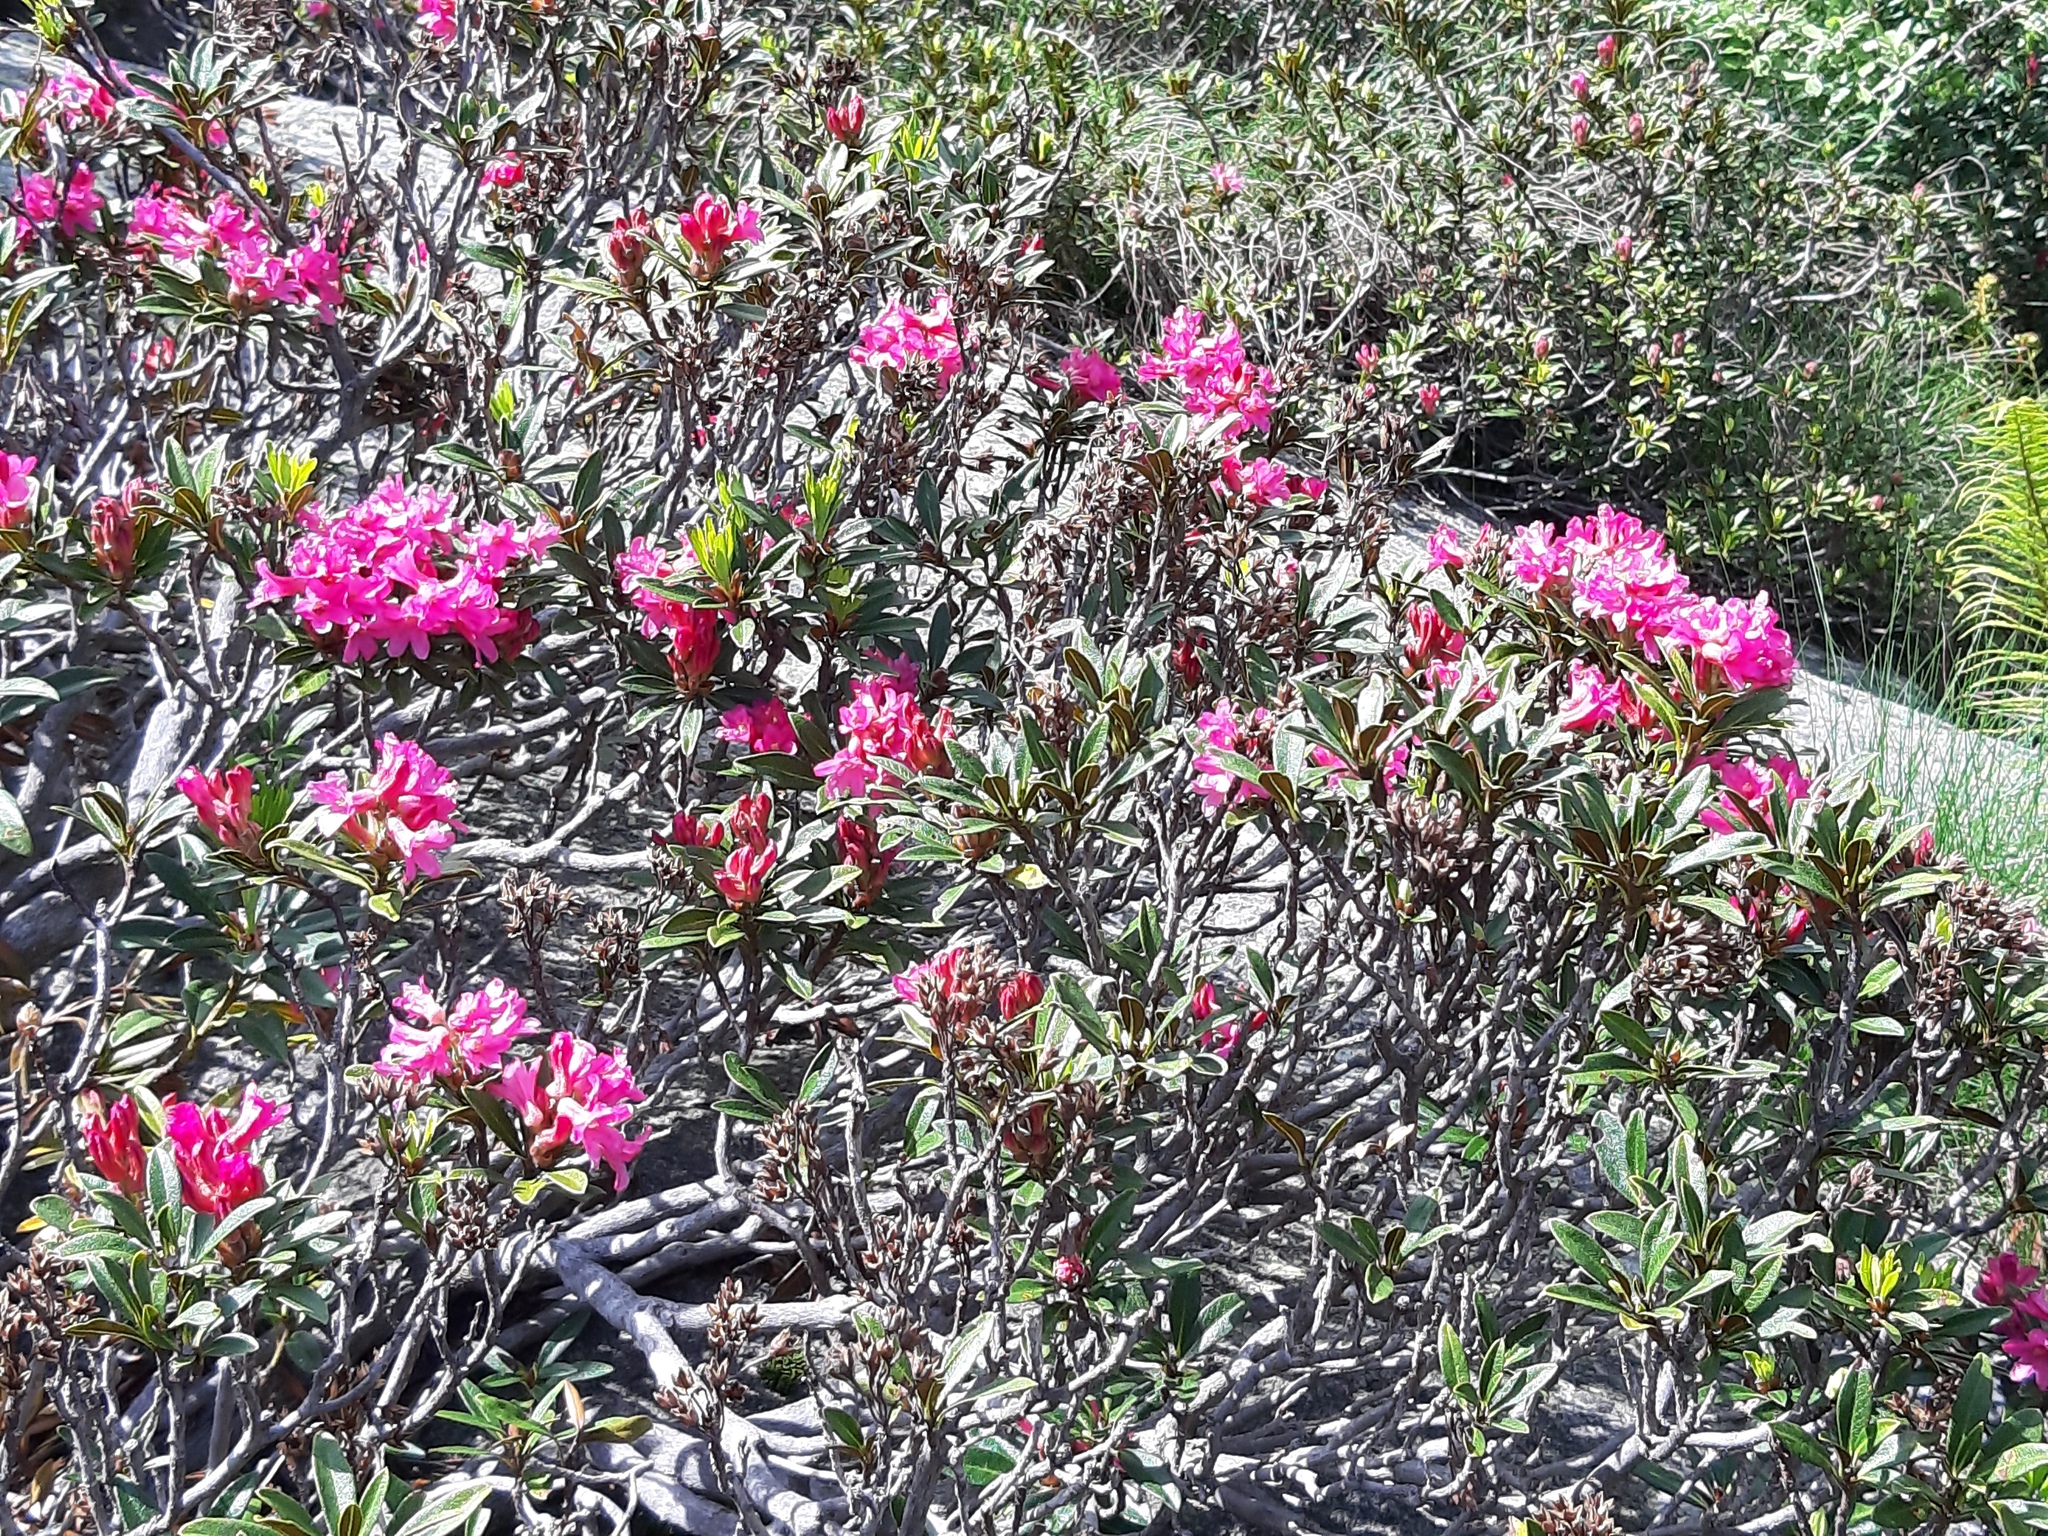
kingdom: Plantae
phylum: Tracheophyta
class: Magnoliopsida
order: Ericales
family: Ericaceae
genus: Rhododendron
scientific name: Rhododendron ferrugineum
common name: Alpenrose
